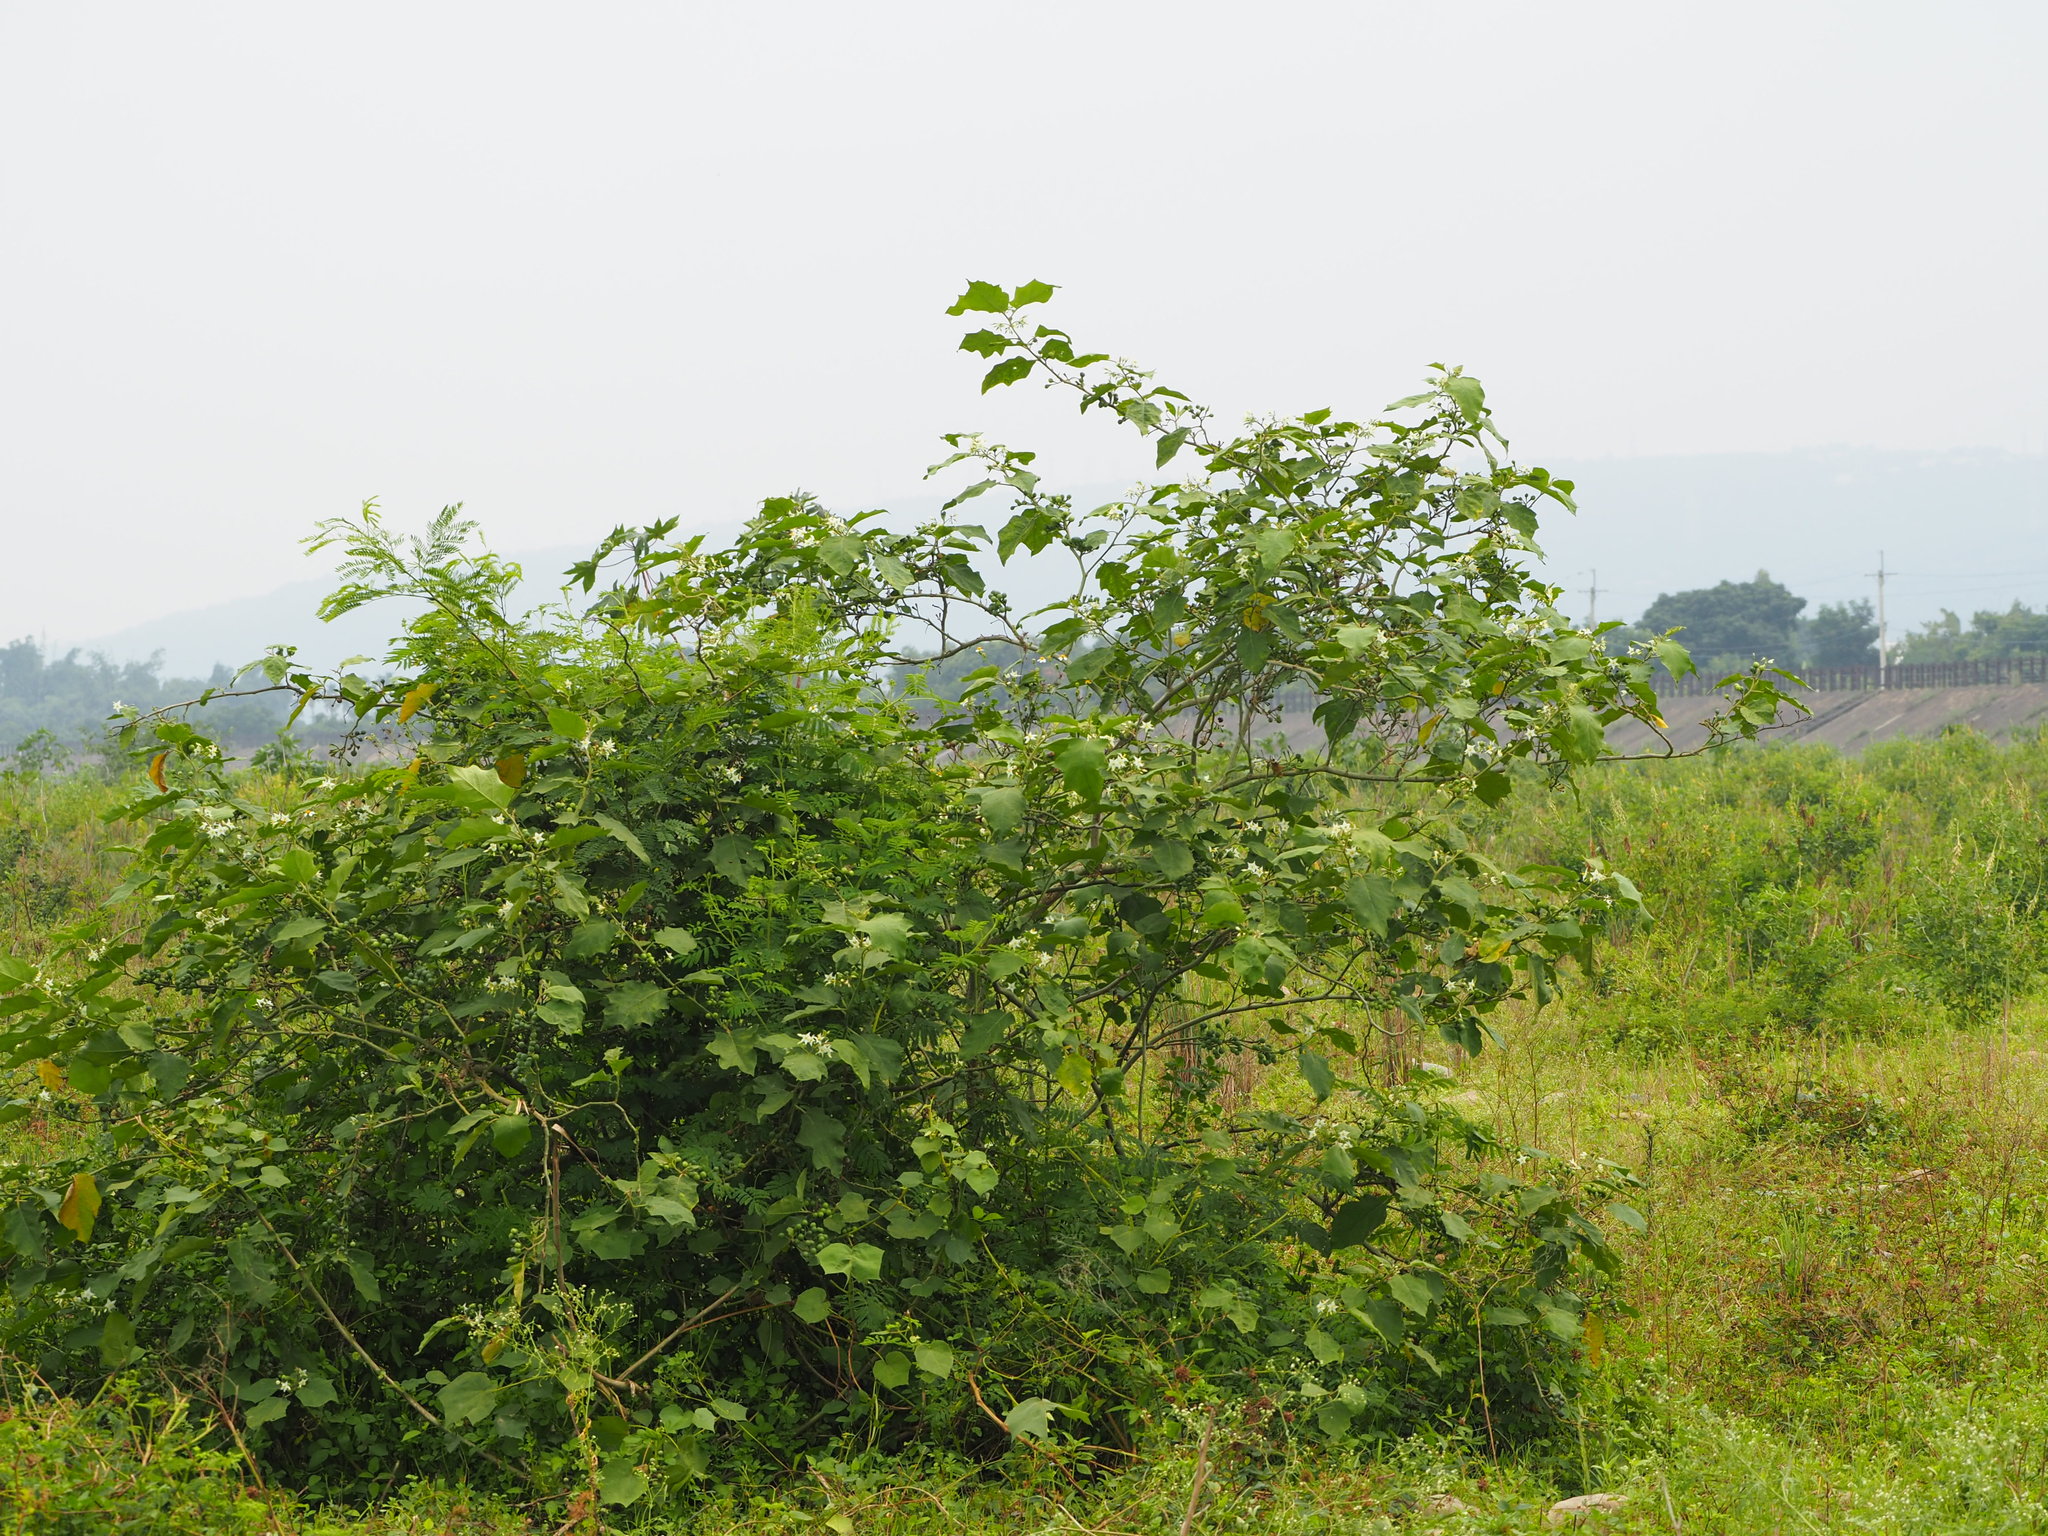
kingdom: Plantae
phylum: Tracheophyta
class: Magnoliopsida
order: Solanales
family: Solanaceae
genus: Solanum
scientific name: Solanum torvum
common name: Turkey berry
